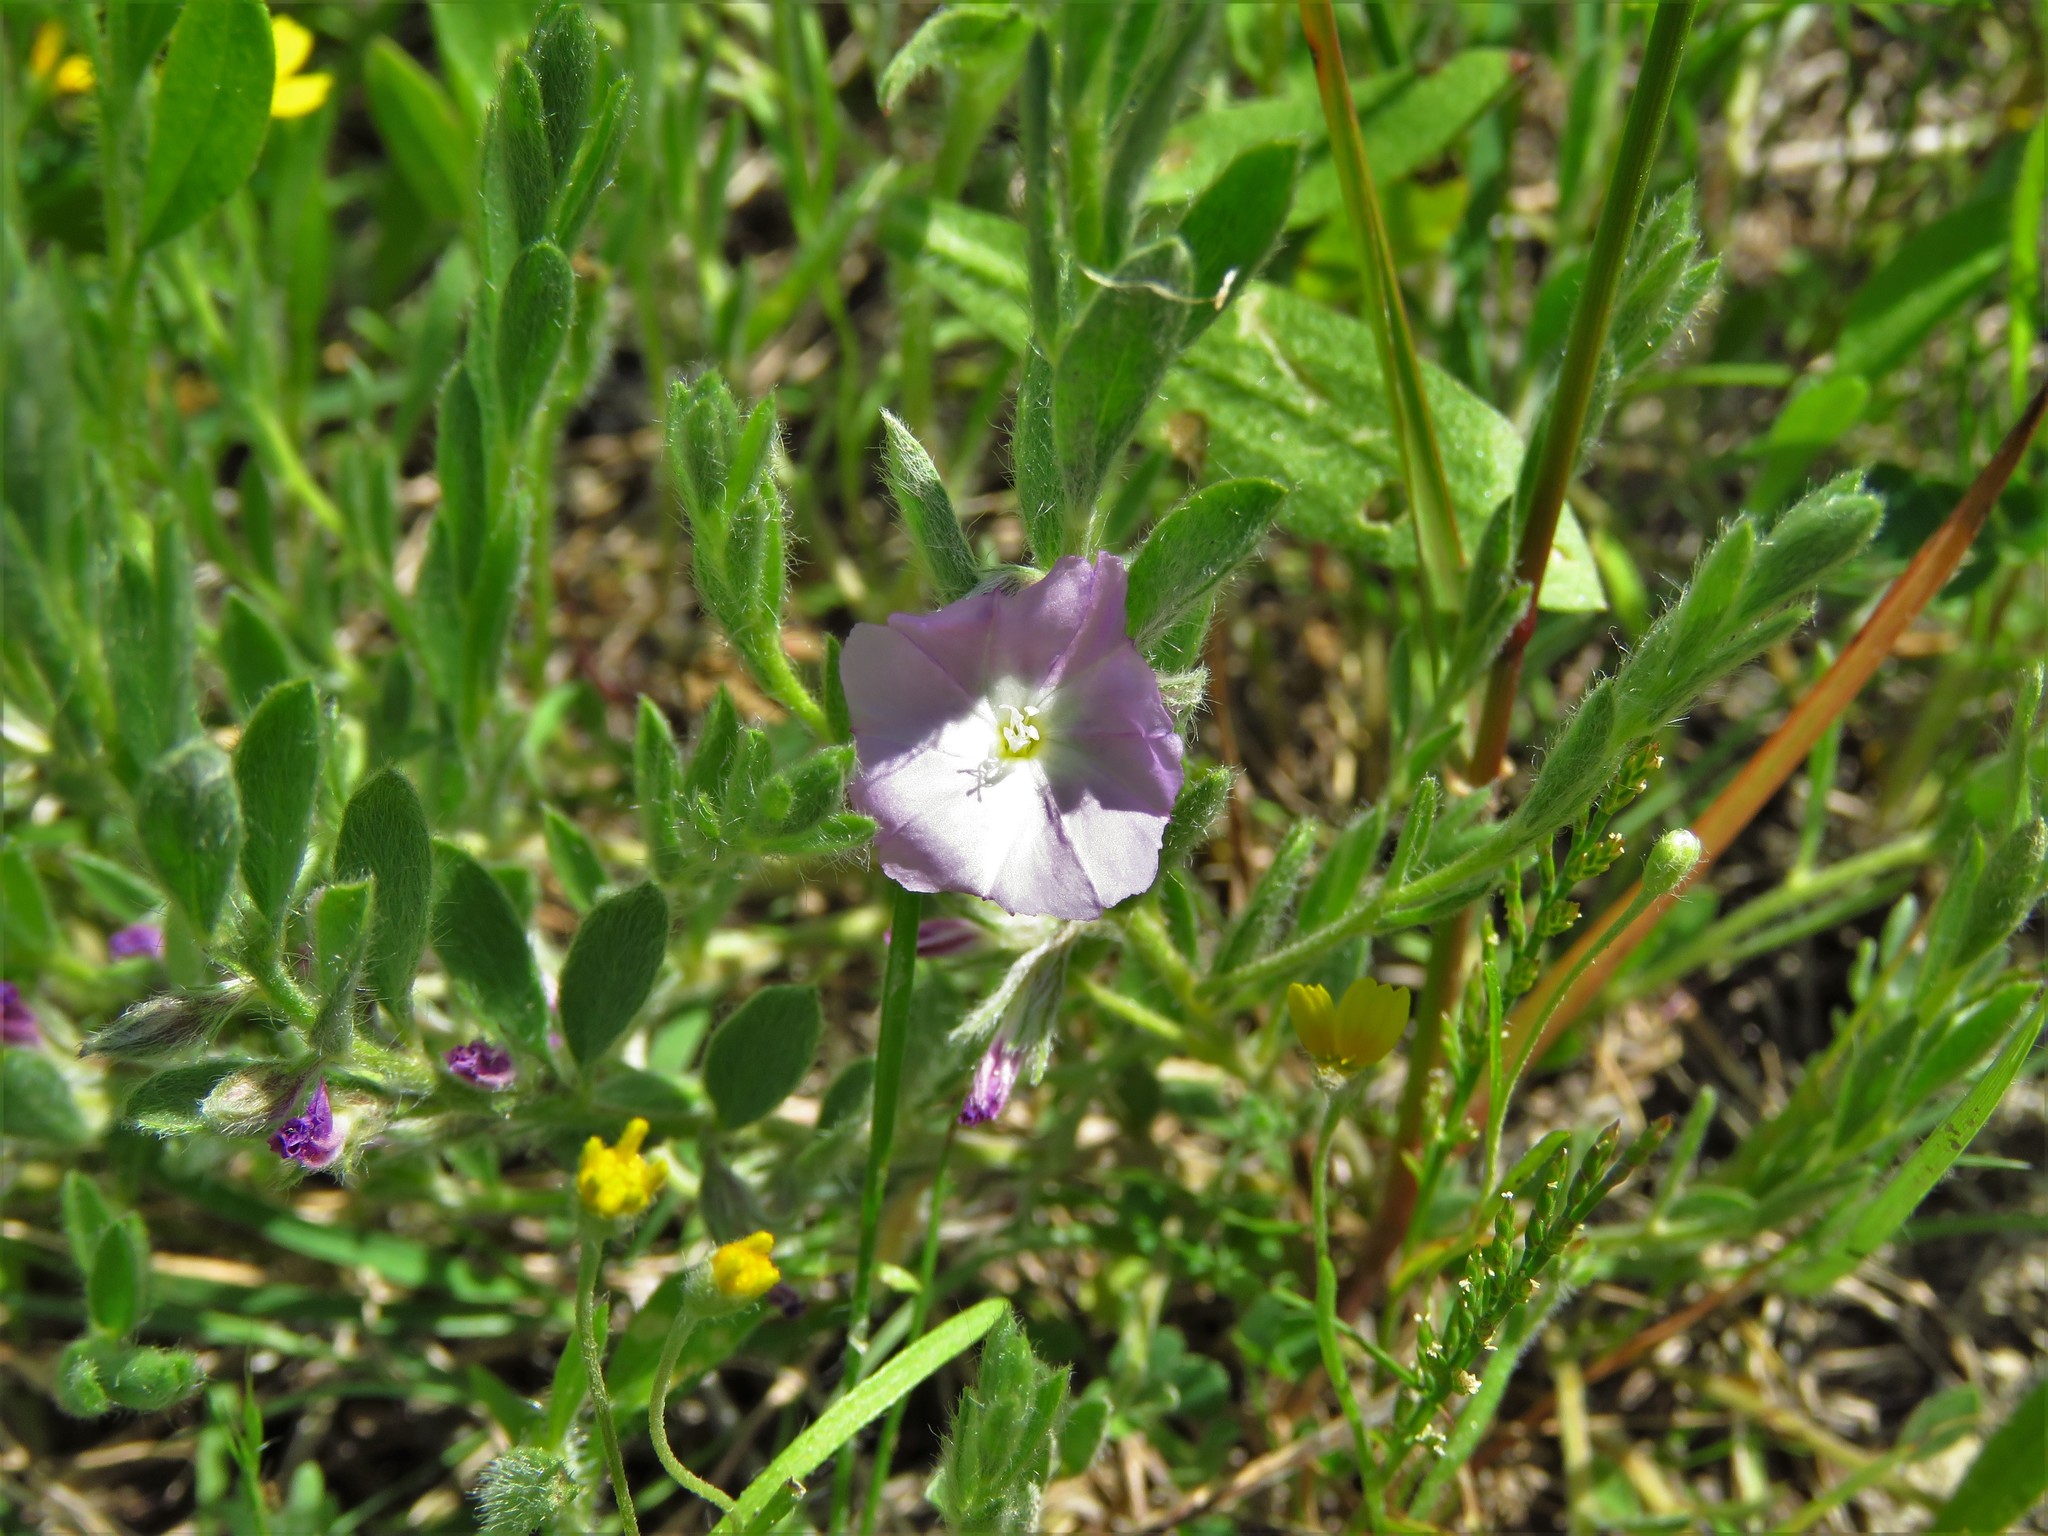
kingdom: Plantae
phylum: Tracheophyta
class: Magnoliopsida
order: Solanales
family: Convolvulaceae
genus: Evolvulus
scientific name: Evolvulus nuttallianus
